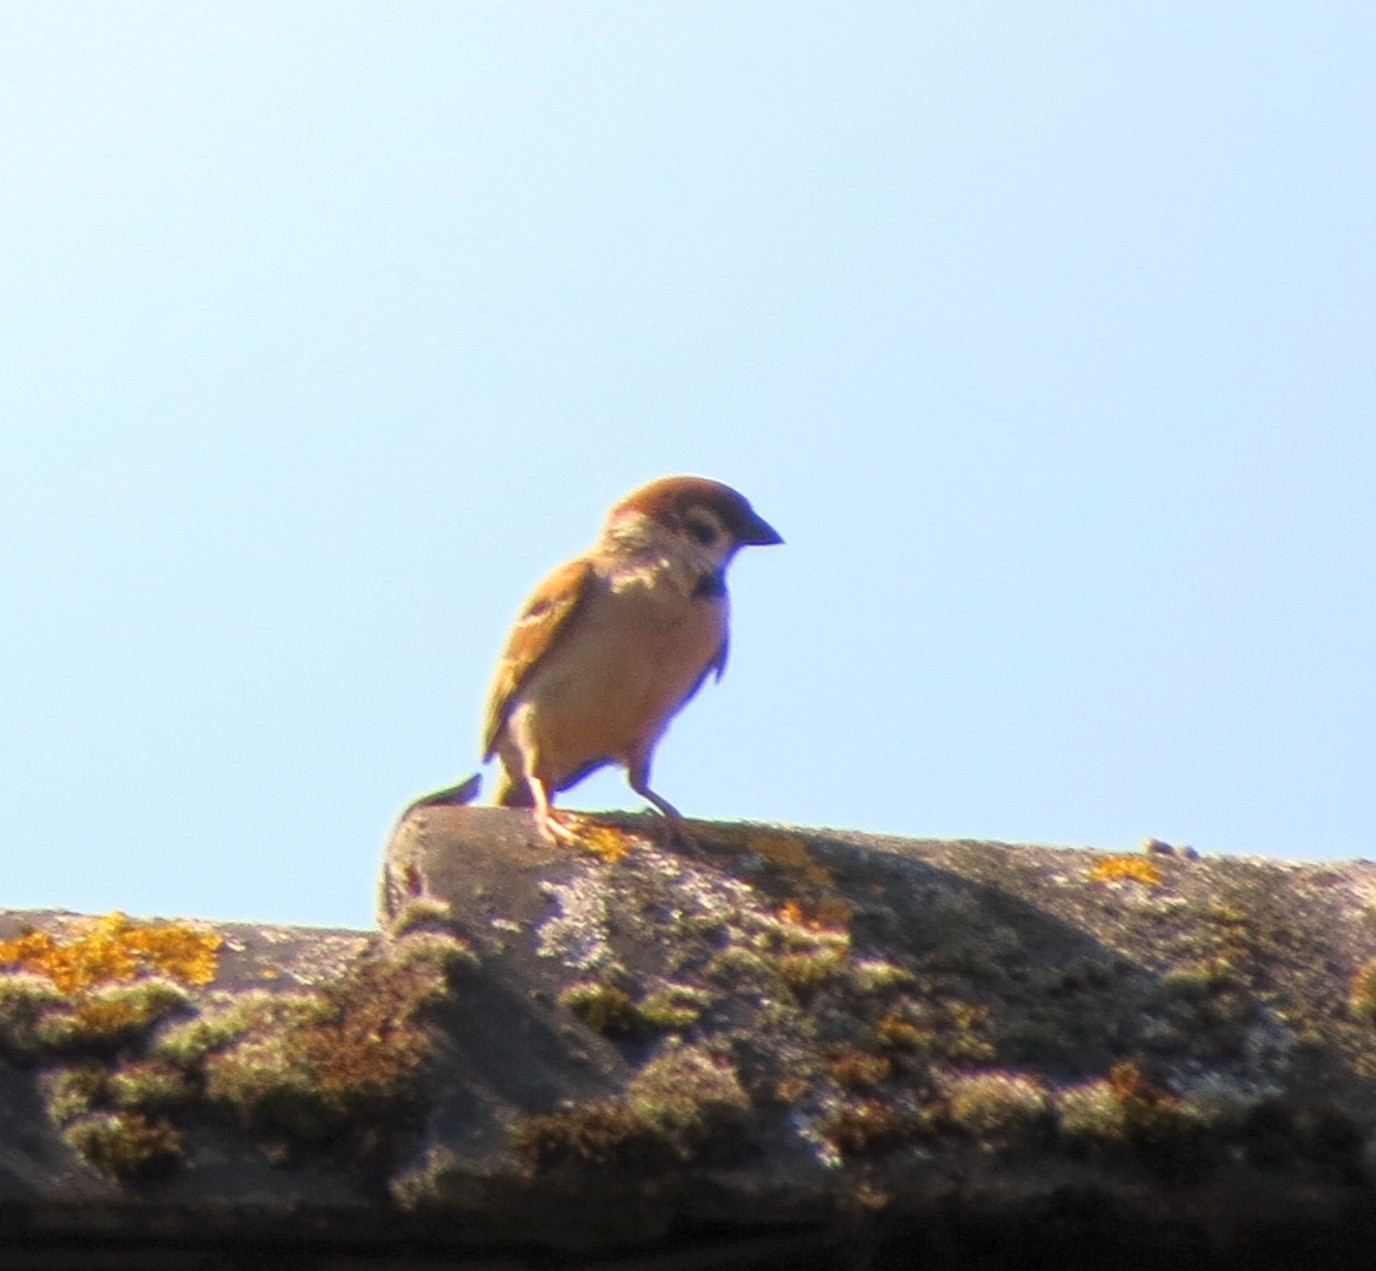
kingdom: Animalia
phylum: Chordata
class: Aves
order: Passeriformes
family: Passeridae
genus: Passer
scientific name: Passer montanus
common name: Eurasian tree sparrow
